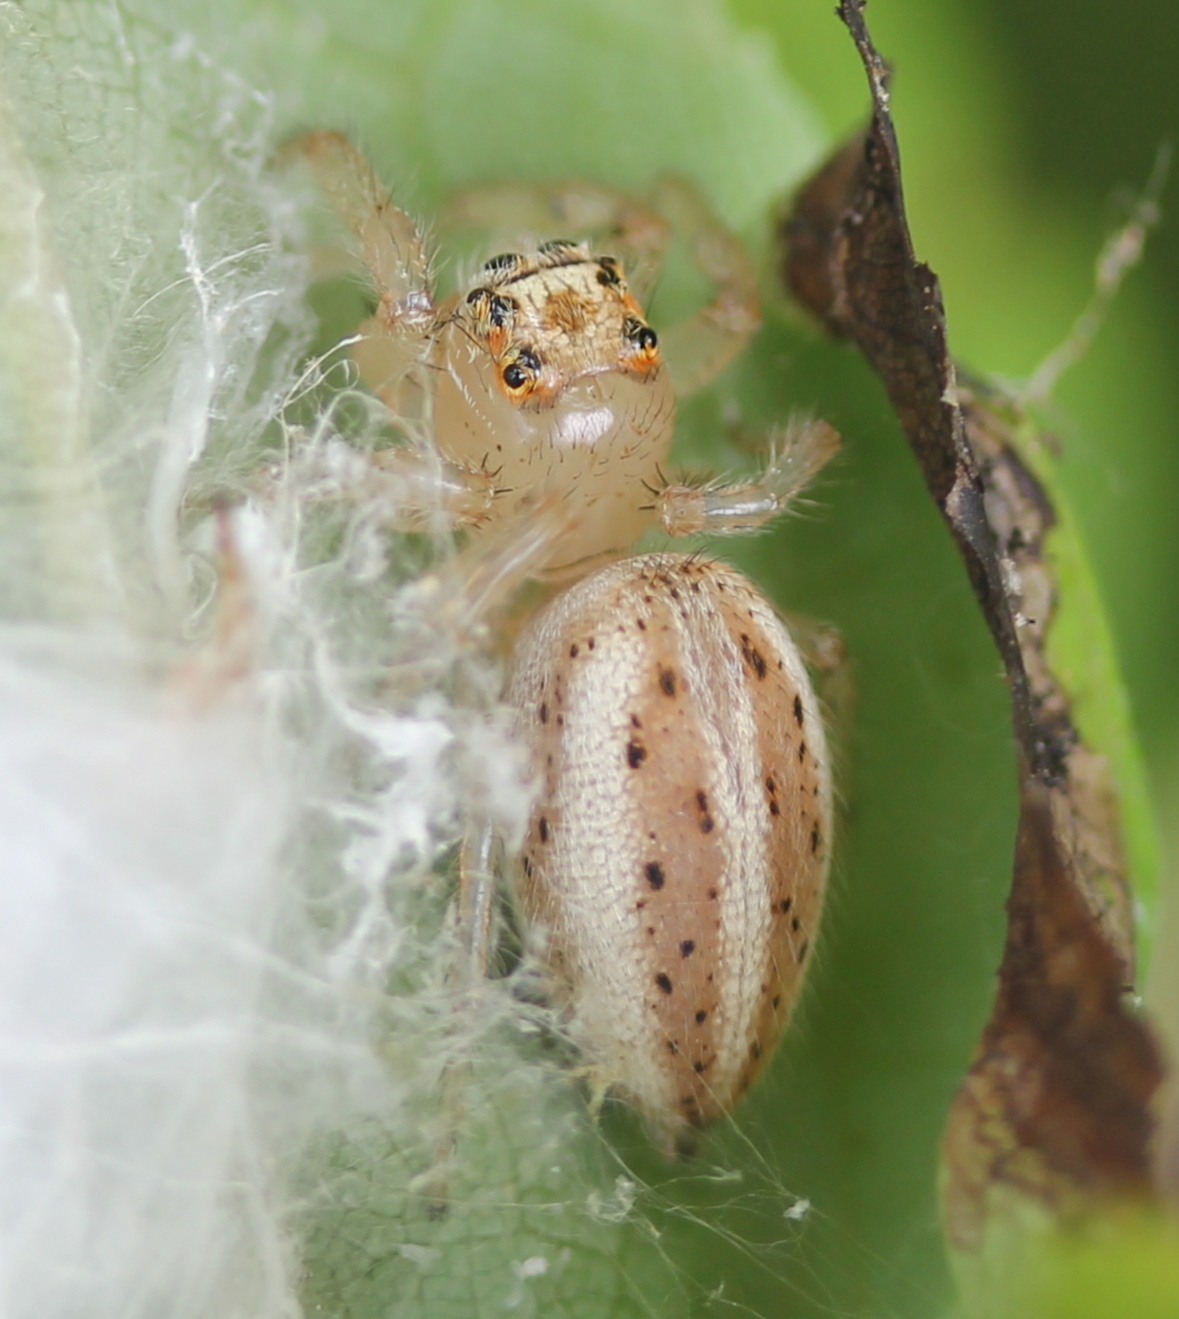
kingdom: Animalia
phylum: Arthropoda
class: Arachnida
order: Araneae
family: Salticidae
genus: Colonus
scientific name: Colonus sylvanus
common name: Jumping spiders
